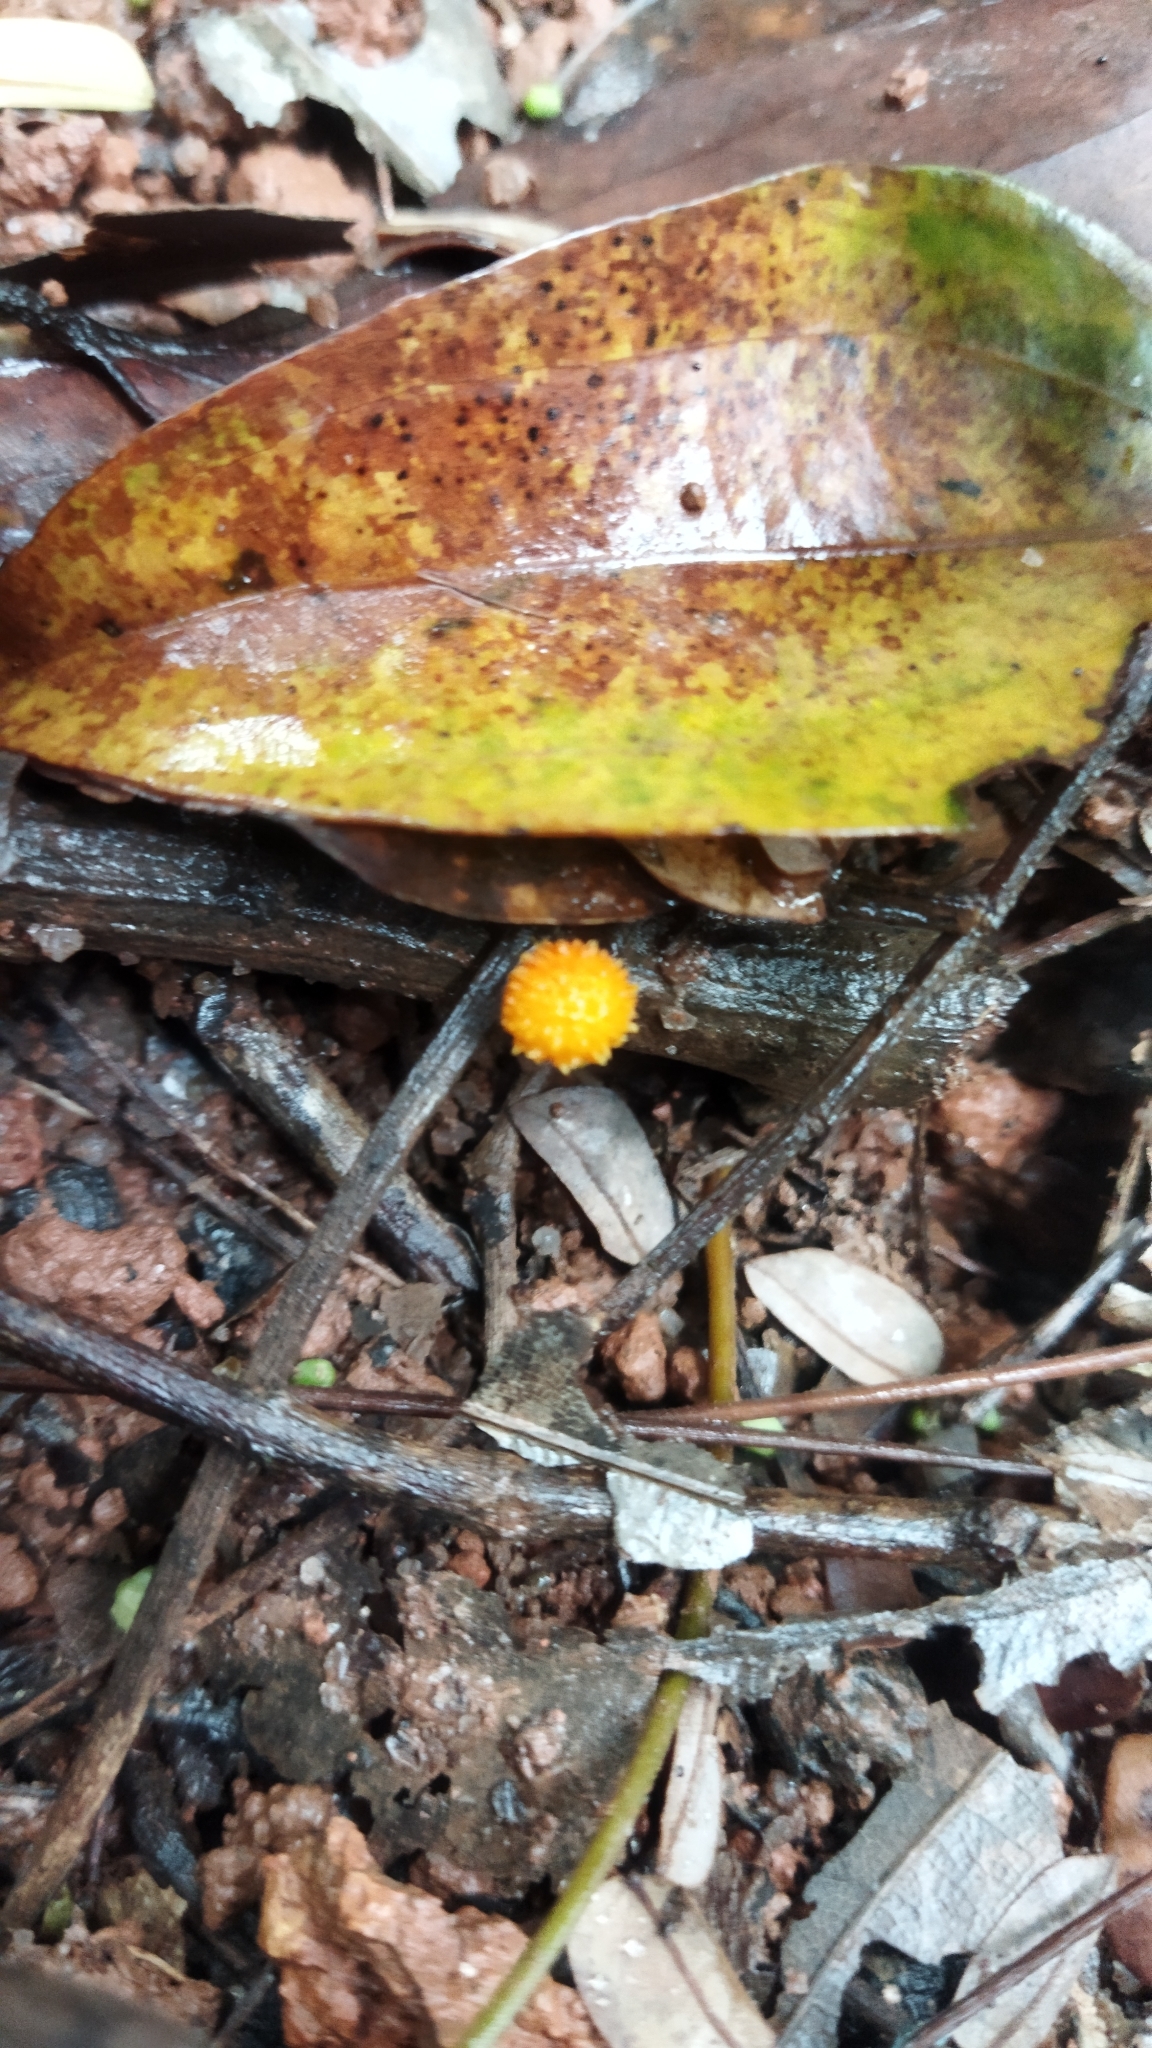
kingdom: Fungi
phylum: Basidiomycota
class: Agaricomycetes
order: Agaricales
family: Physalacriaceae
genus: Cyptotrama
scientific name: Cyptotrama asprata
